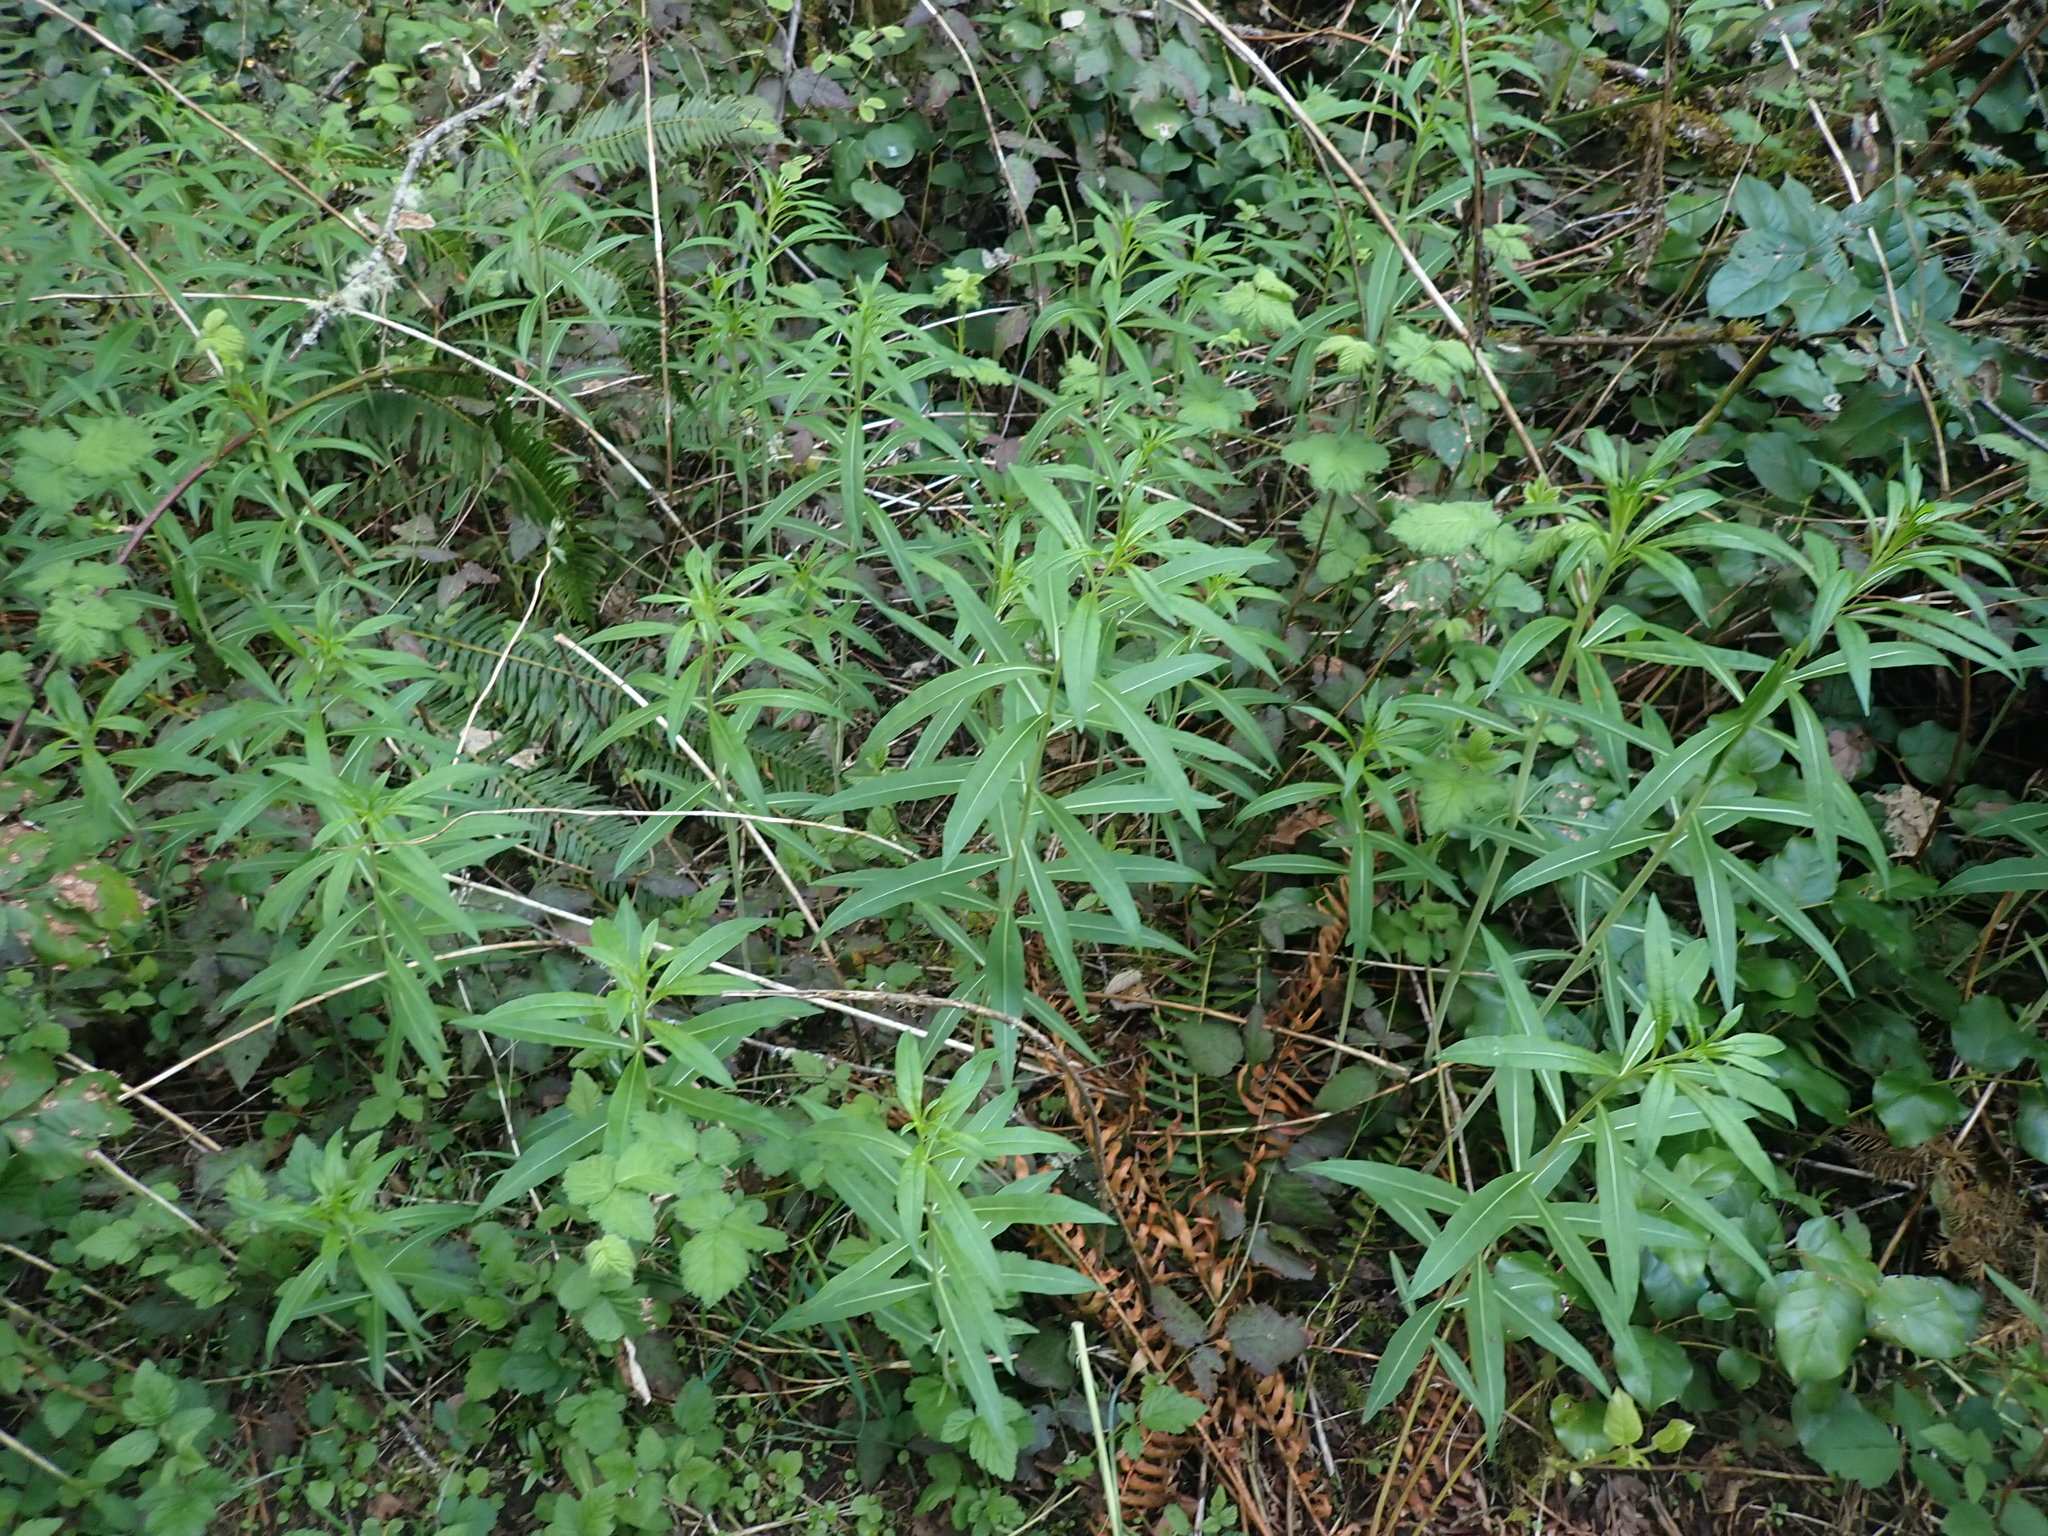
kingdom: Plantae
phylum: Tracheophyta
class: Magnoliopsida
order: Myrtales
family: Onagraceae
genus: Chamaenerion
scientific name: Chamaenerion angustifolium
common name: Fireweed
